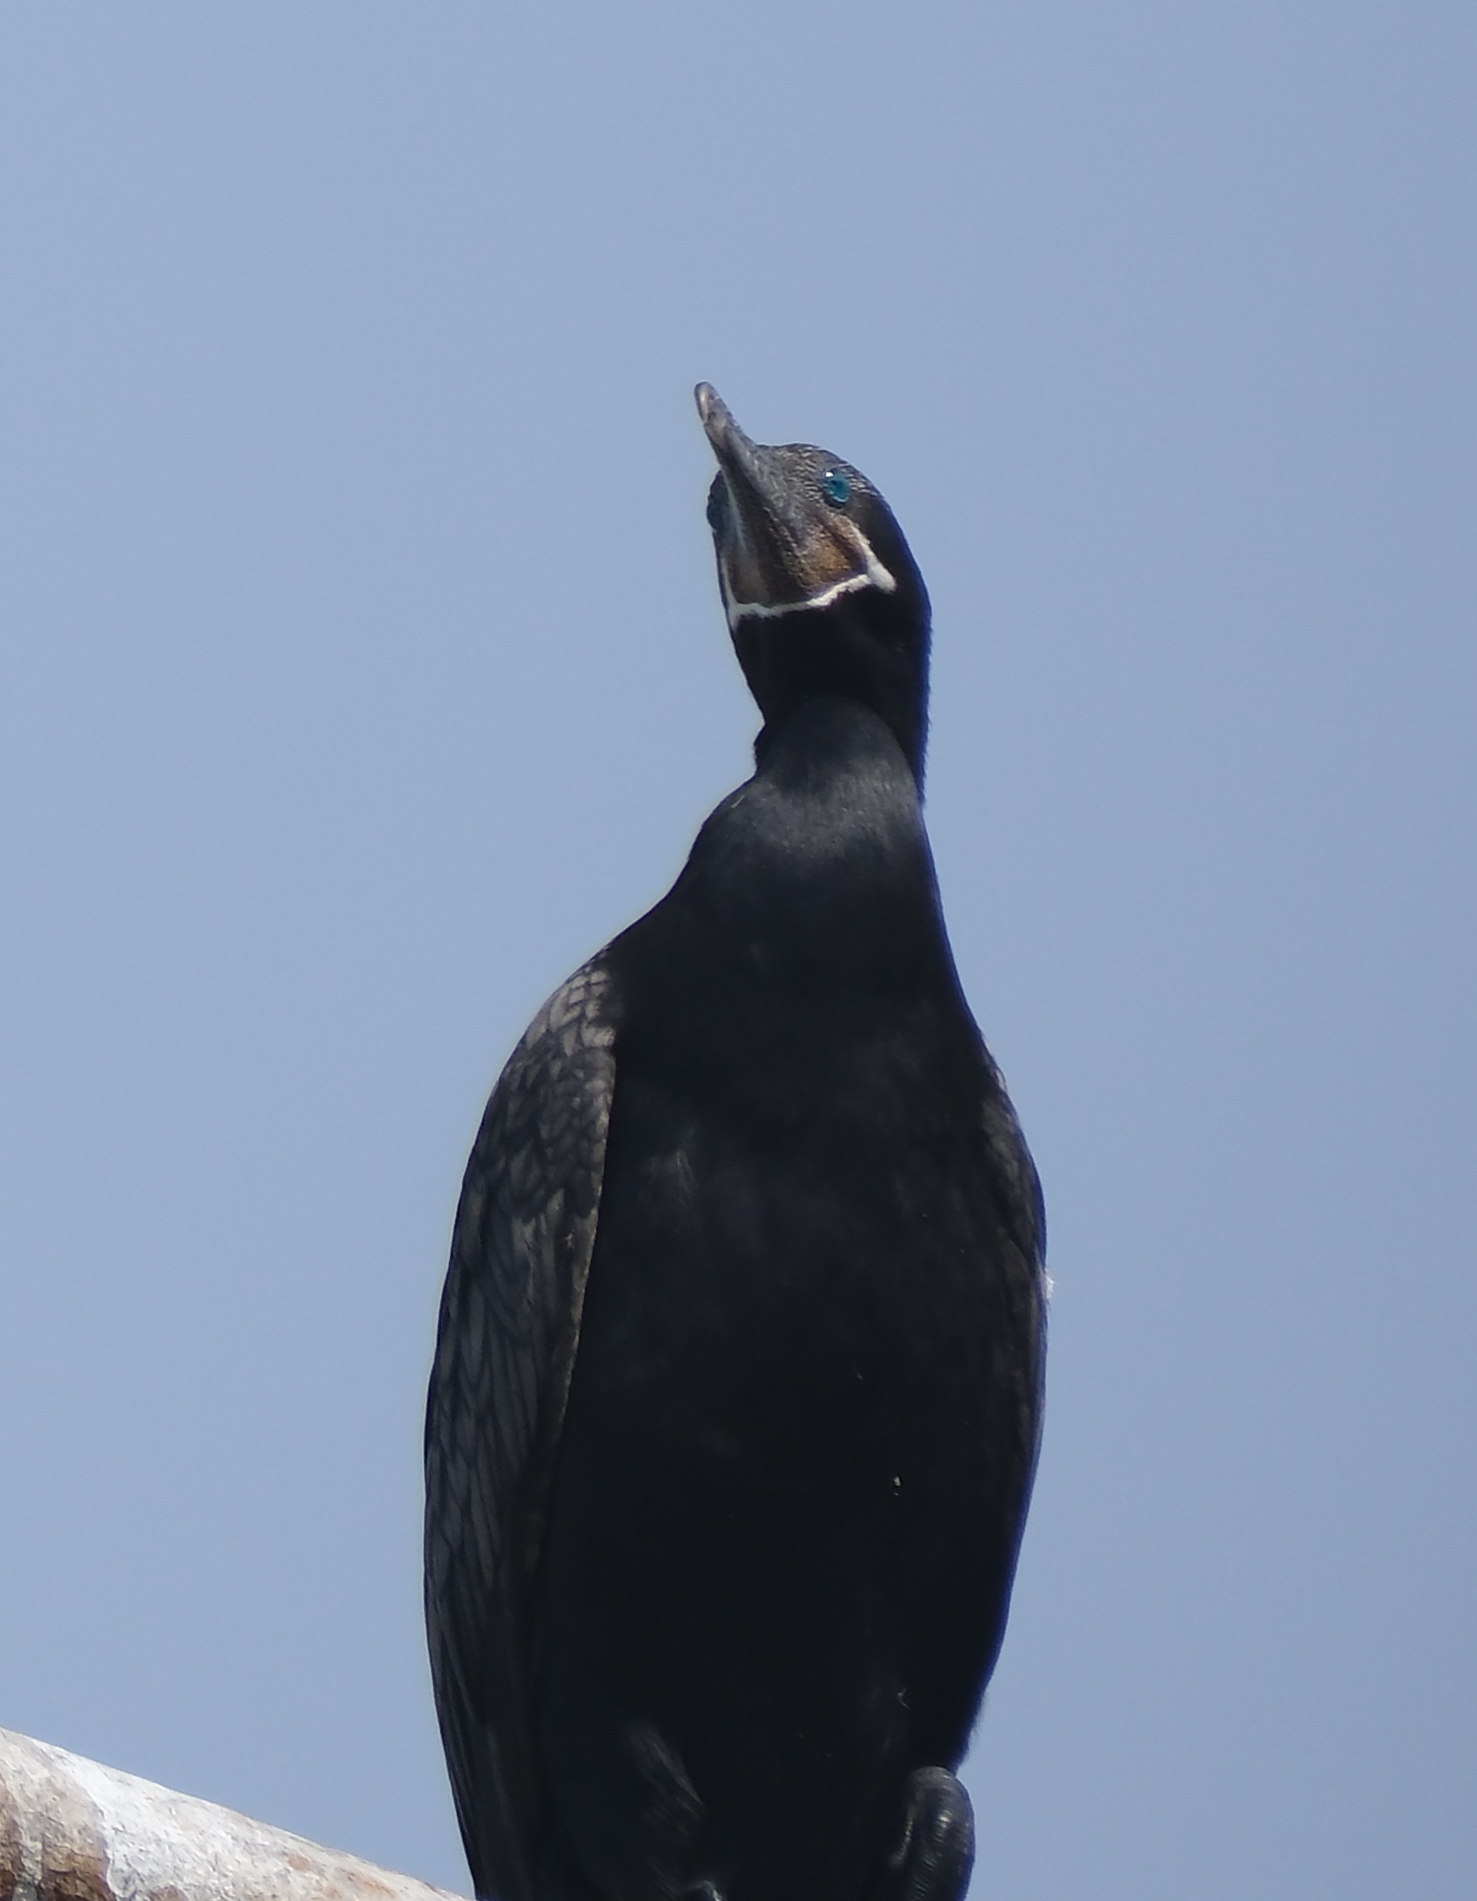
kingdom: Animalia
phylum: Chordata
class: Aves
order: Suliformes
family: Phalacrocoracidae
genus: Phalacrocorax
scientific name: Phalacrocorax brasilianus
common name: Neotropic cormorant
